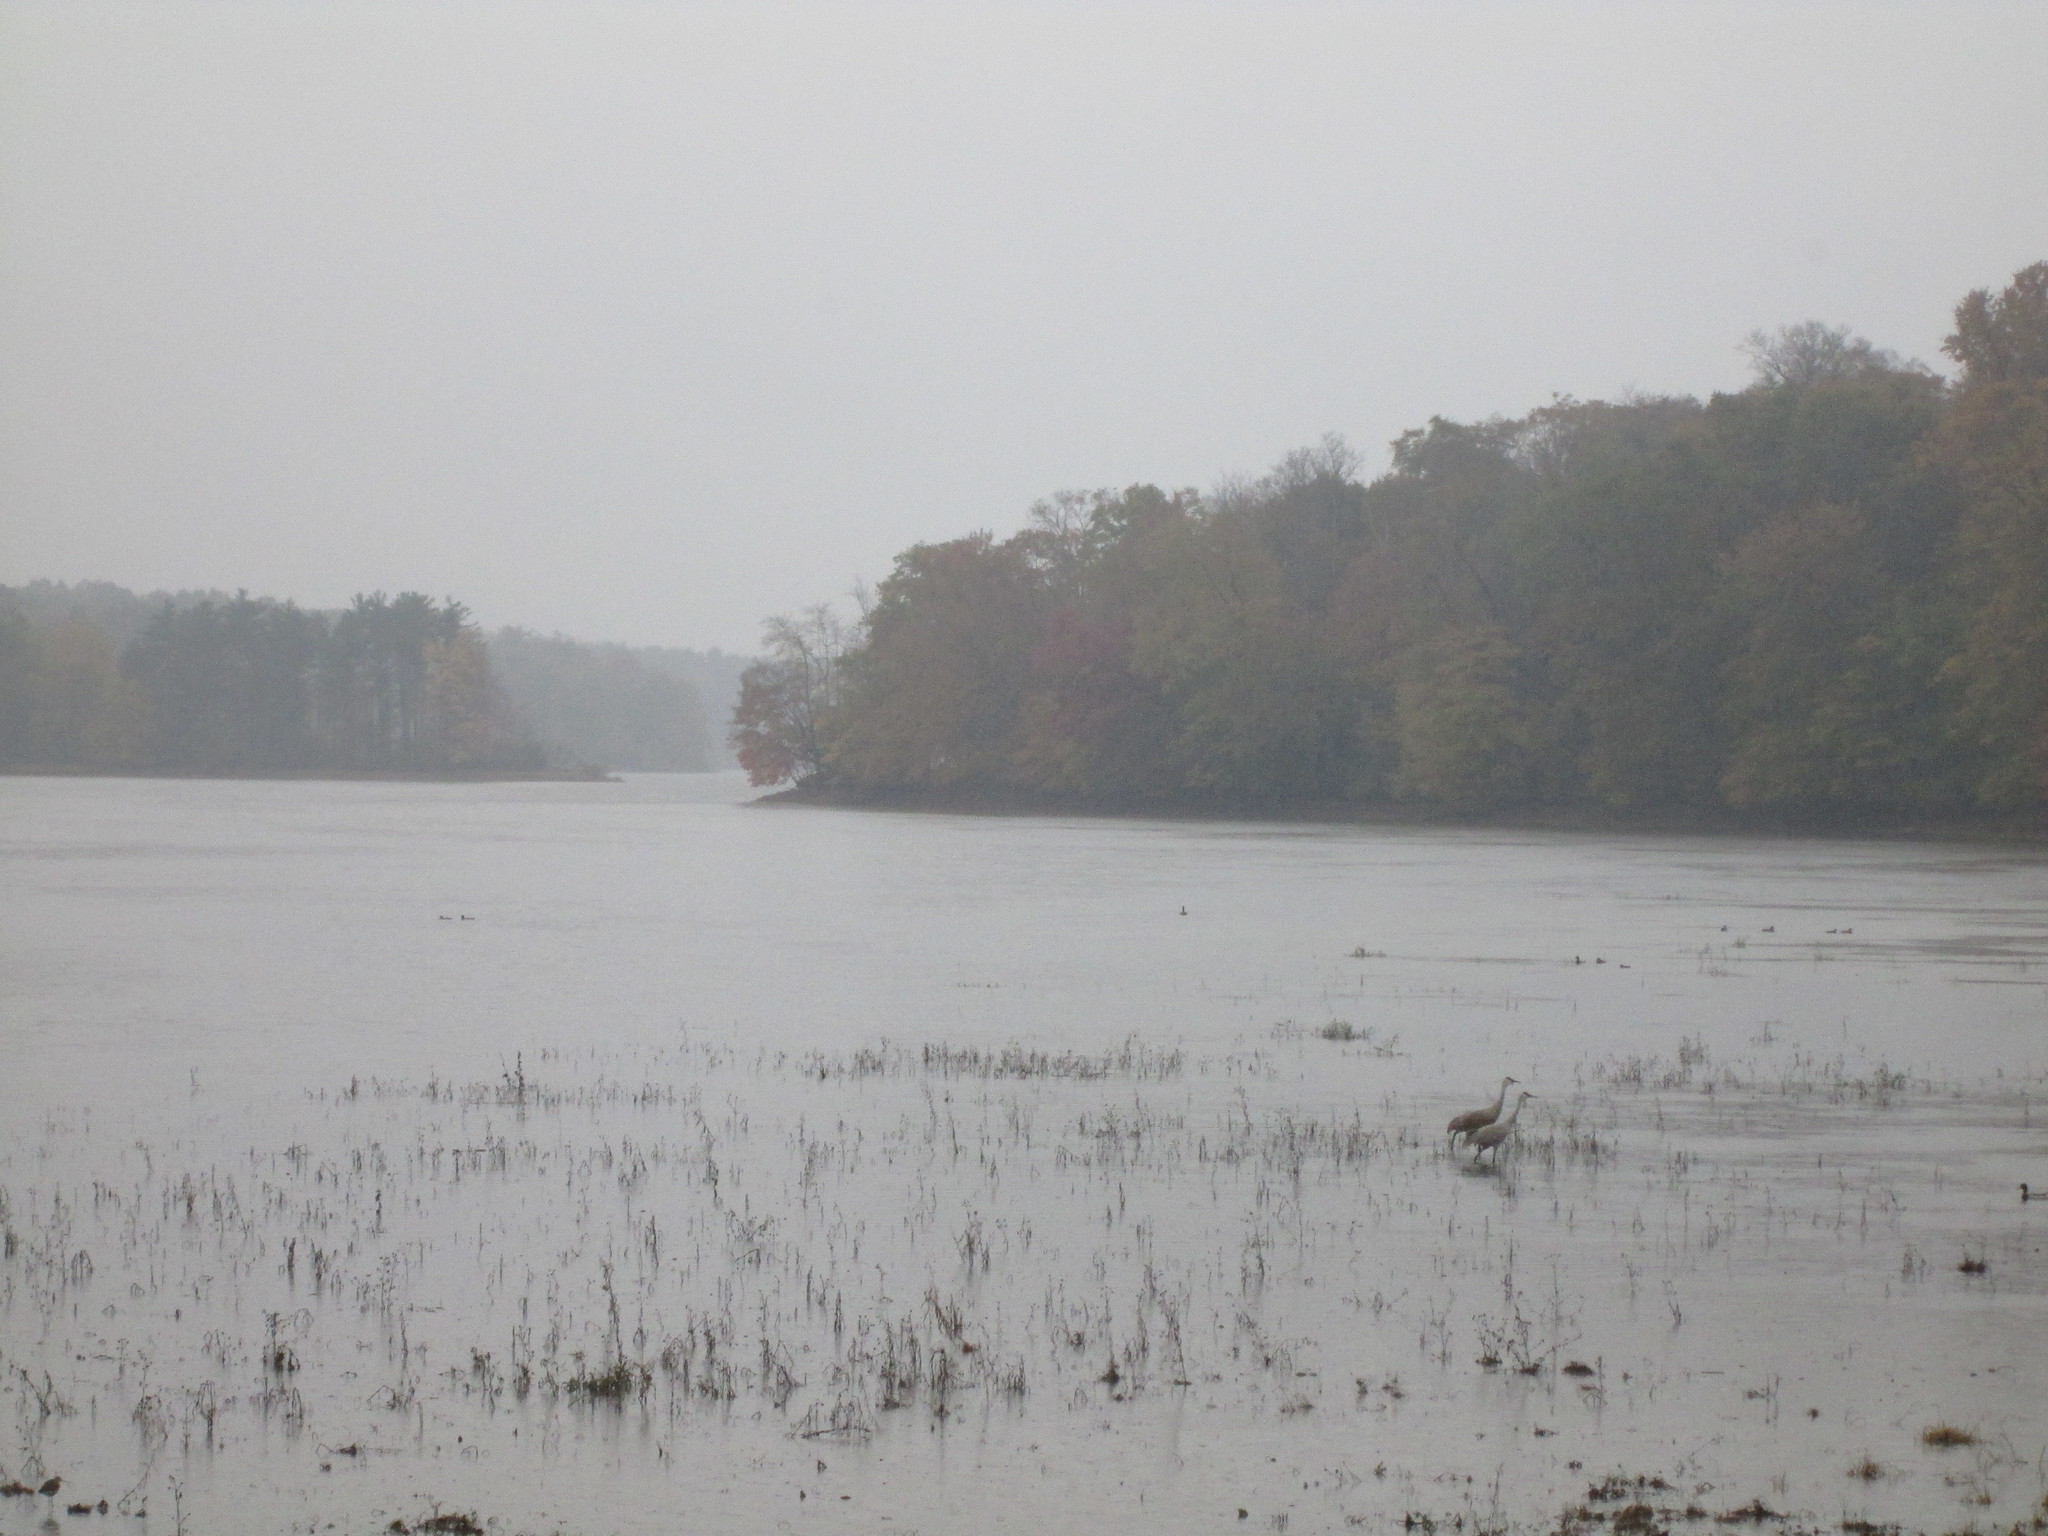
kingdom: Animalia
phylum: Chordata
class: Aves
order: Gruiformes
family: Gruidae
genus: Grus
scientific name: Grus canadensis
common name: Sandhill crane
